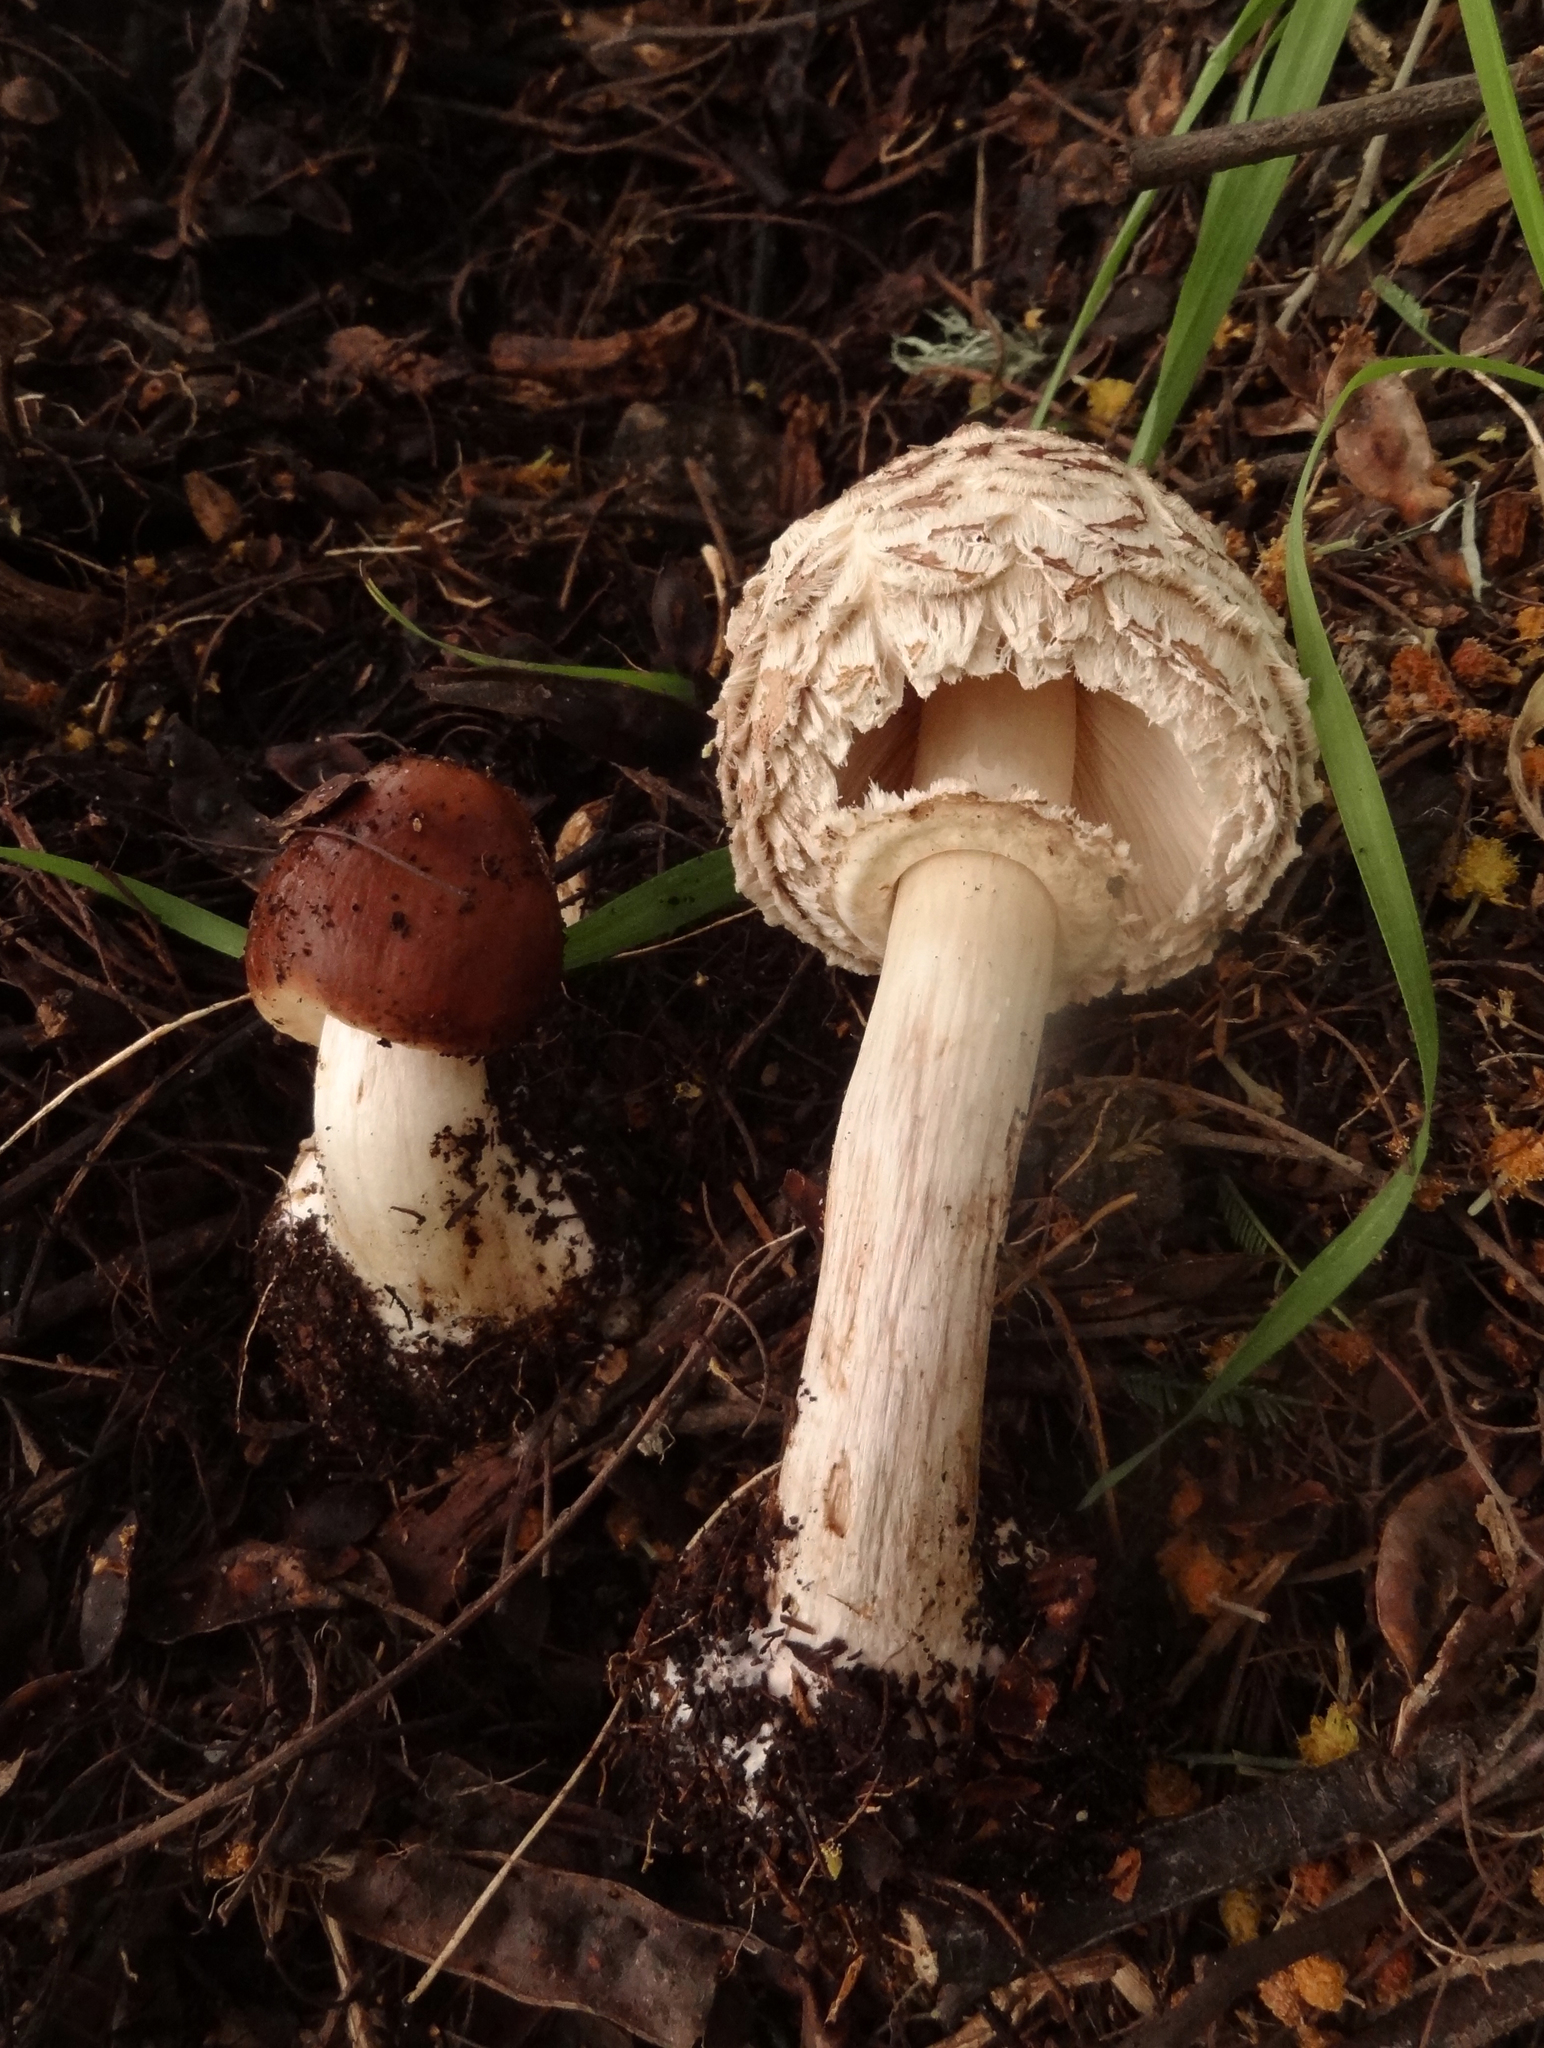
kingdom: Fungi
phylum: Basidiomycota
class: Agaricomycetes
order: Agaricales
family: Agaricaceae
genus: Chlorophyllum
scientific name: Chlorophyllum brunneum
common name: Brown parasol
